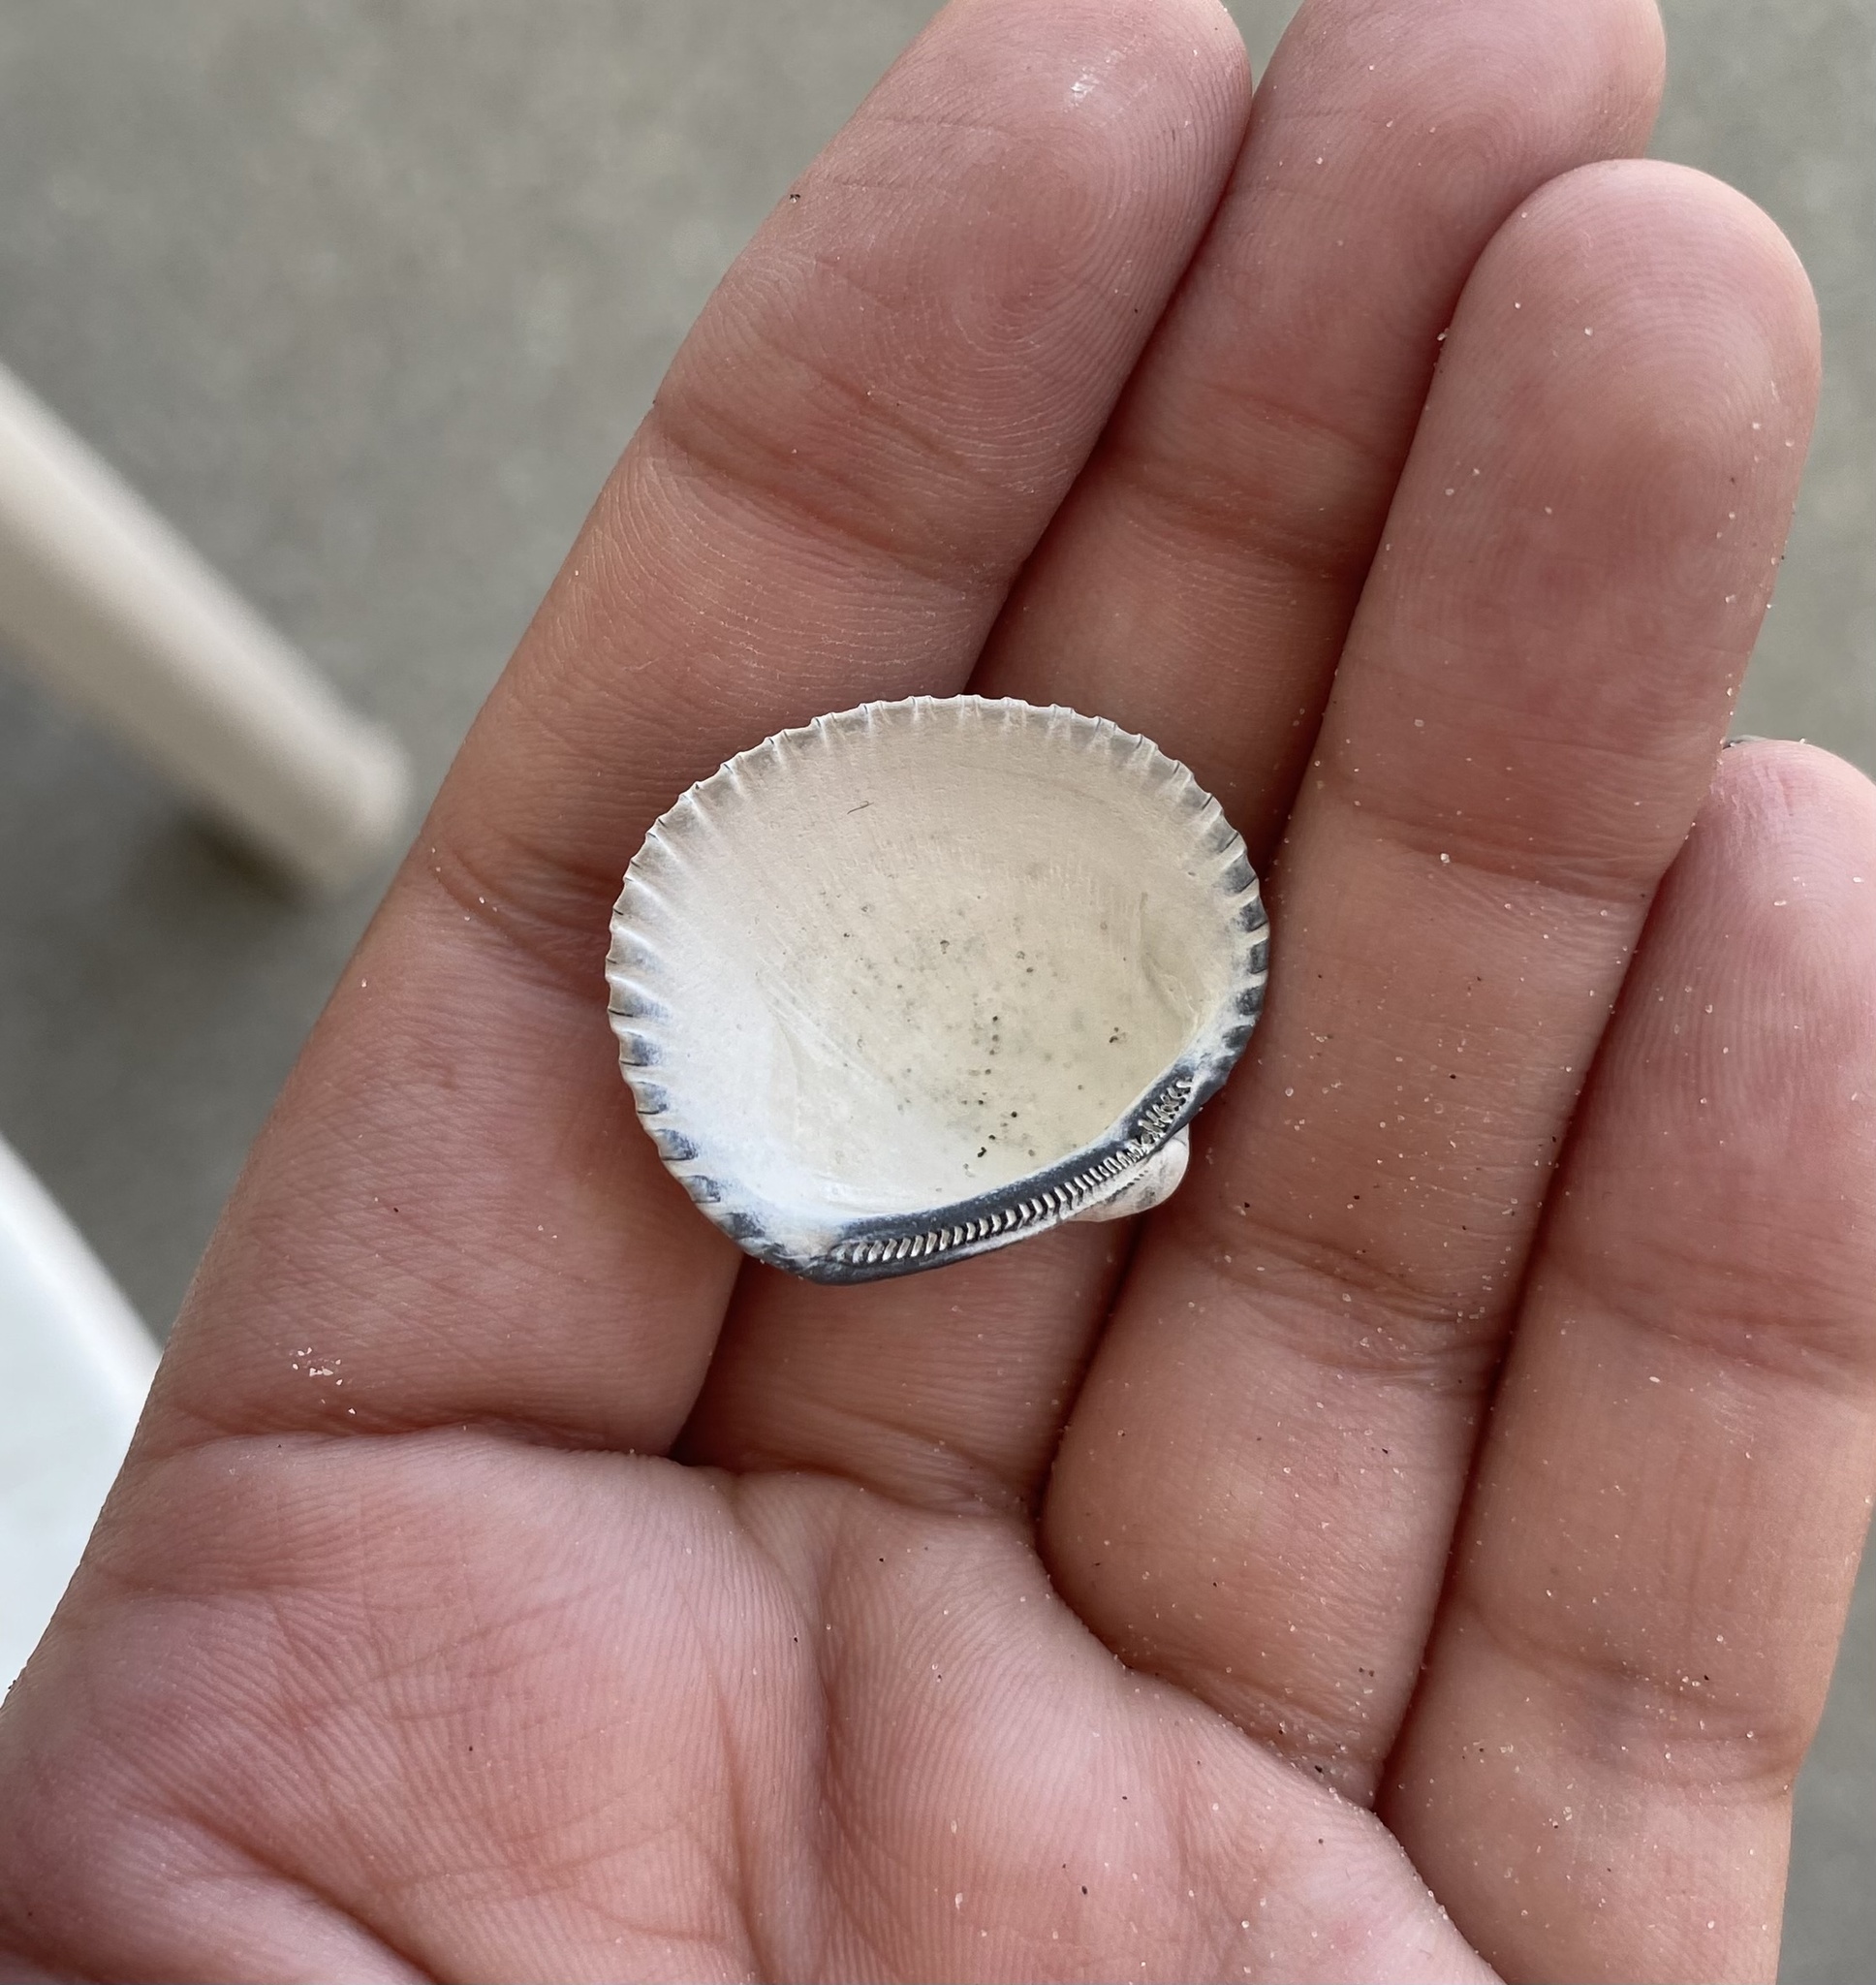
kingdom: Animalia
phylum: Mollusca
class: Bivalvia
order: Arcida
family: Arcidae
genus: Lunarca
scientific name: Lunarca ovalis
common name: Blood ark
